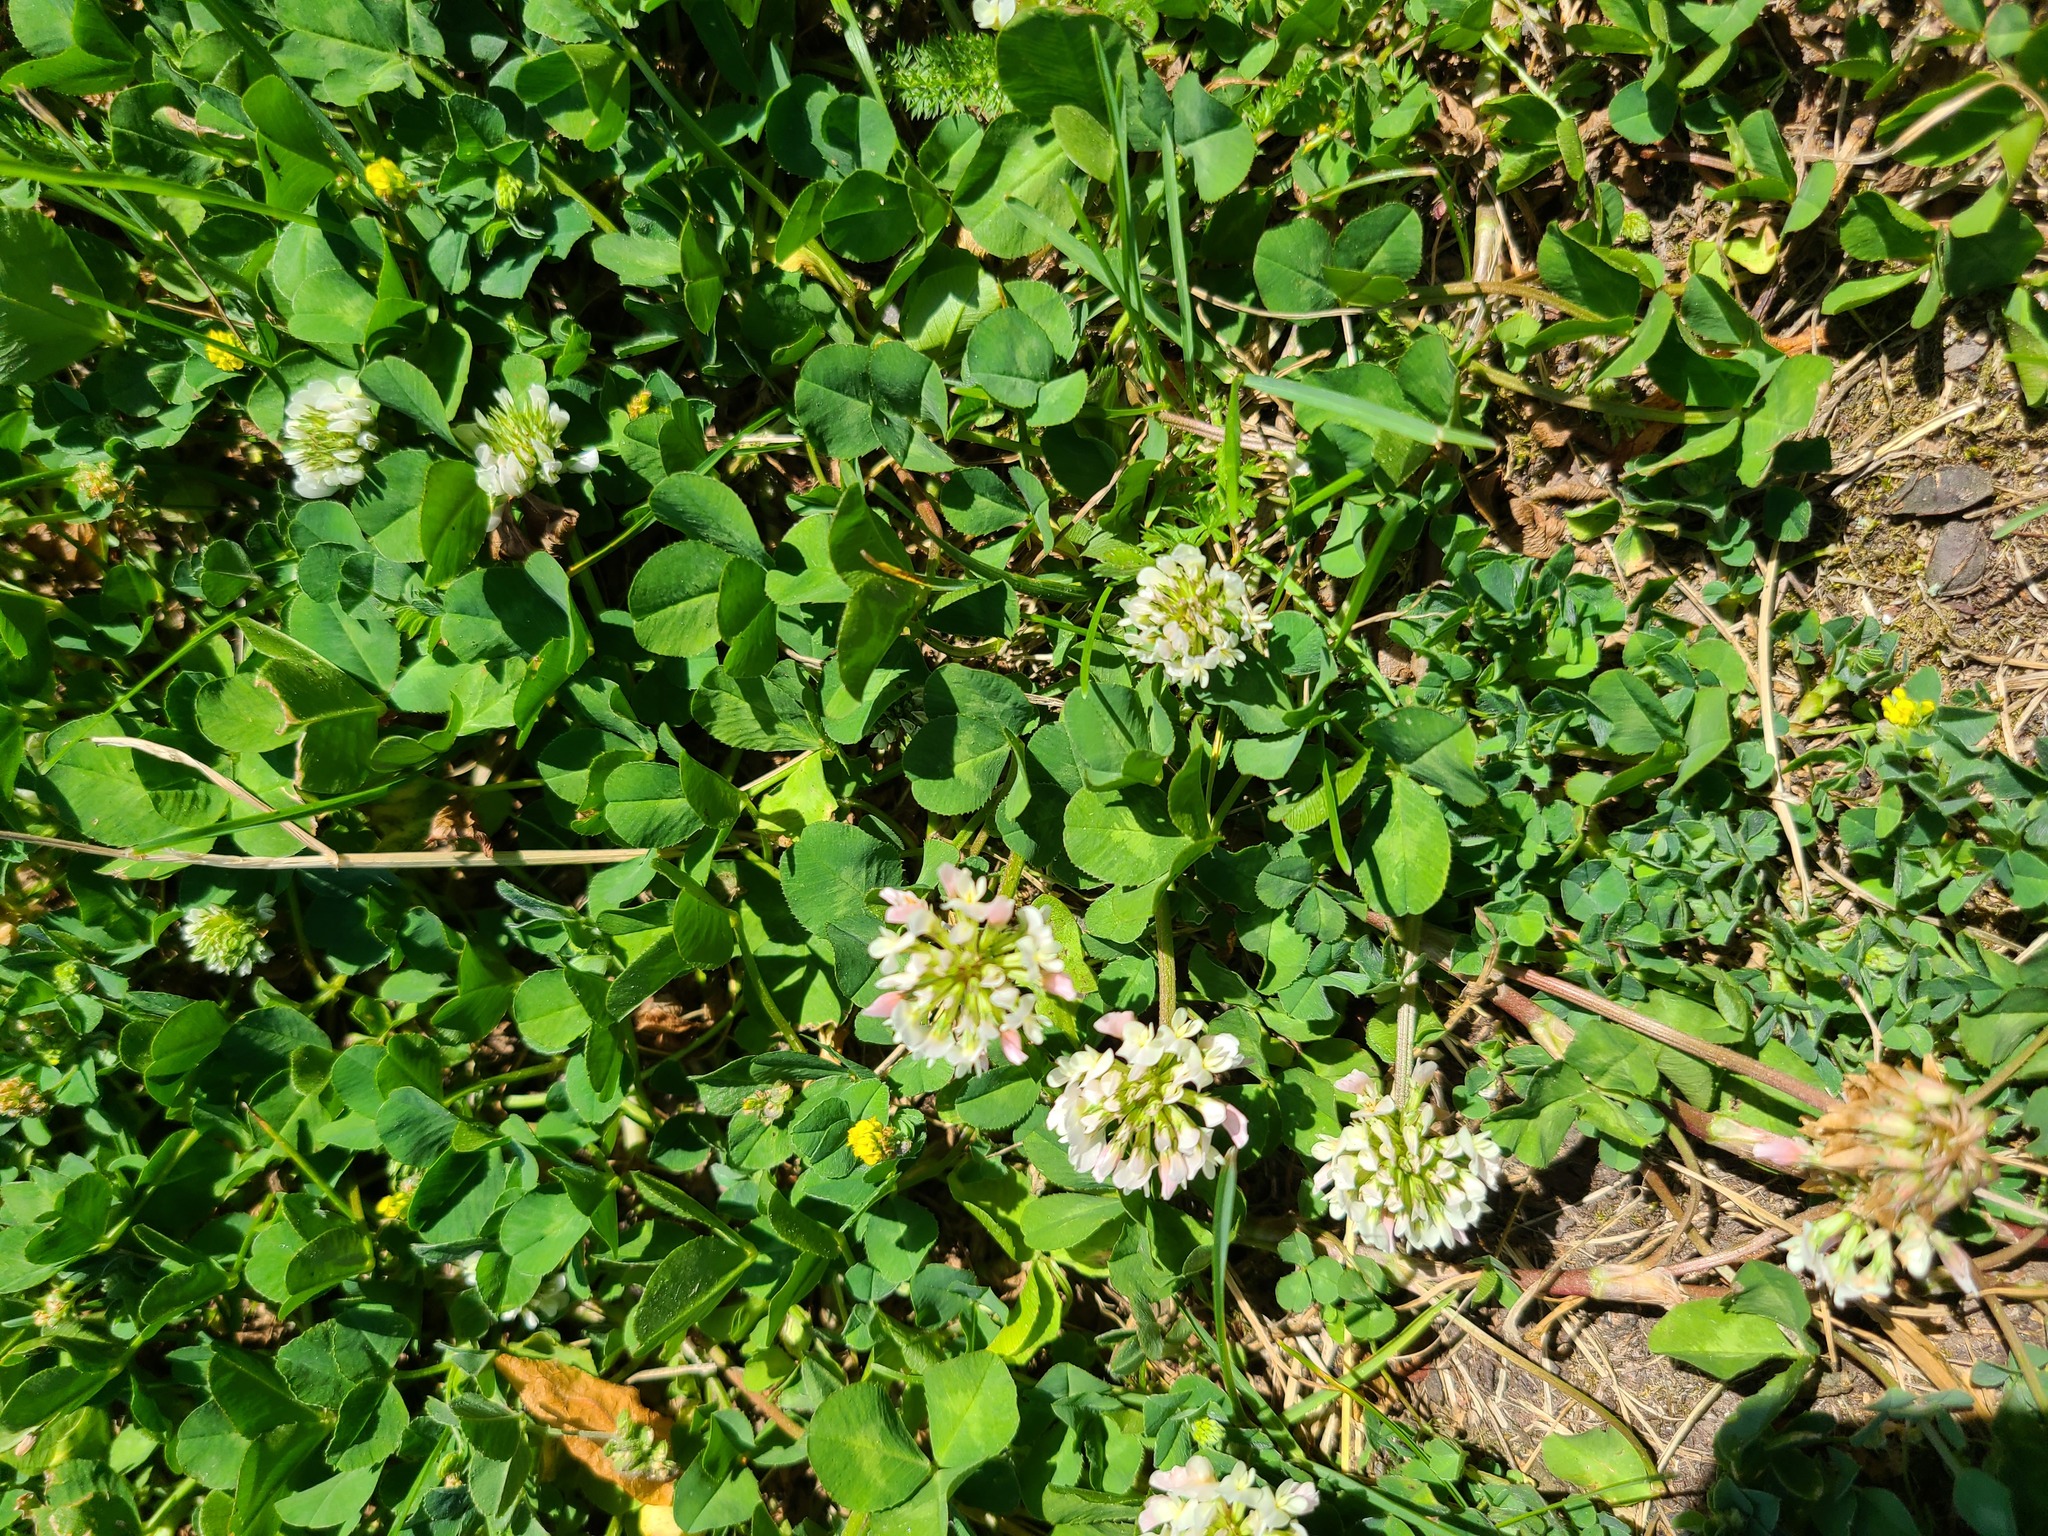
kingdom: Plantae
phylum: Tracheophyta
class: Magnoliopsida
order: Fabales
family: Fabaceae
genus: Trifolium
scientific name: Trifolium repens
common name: White clover
